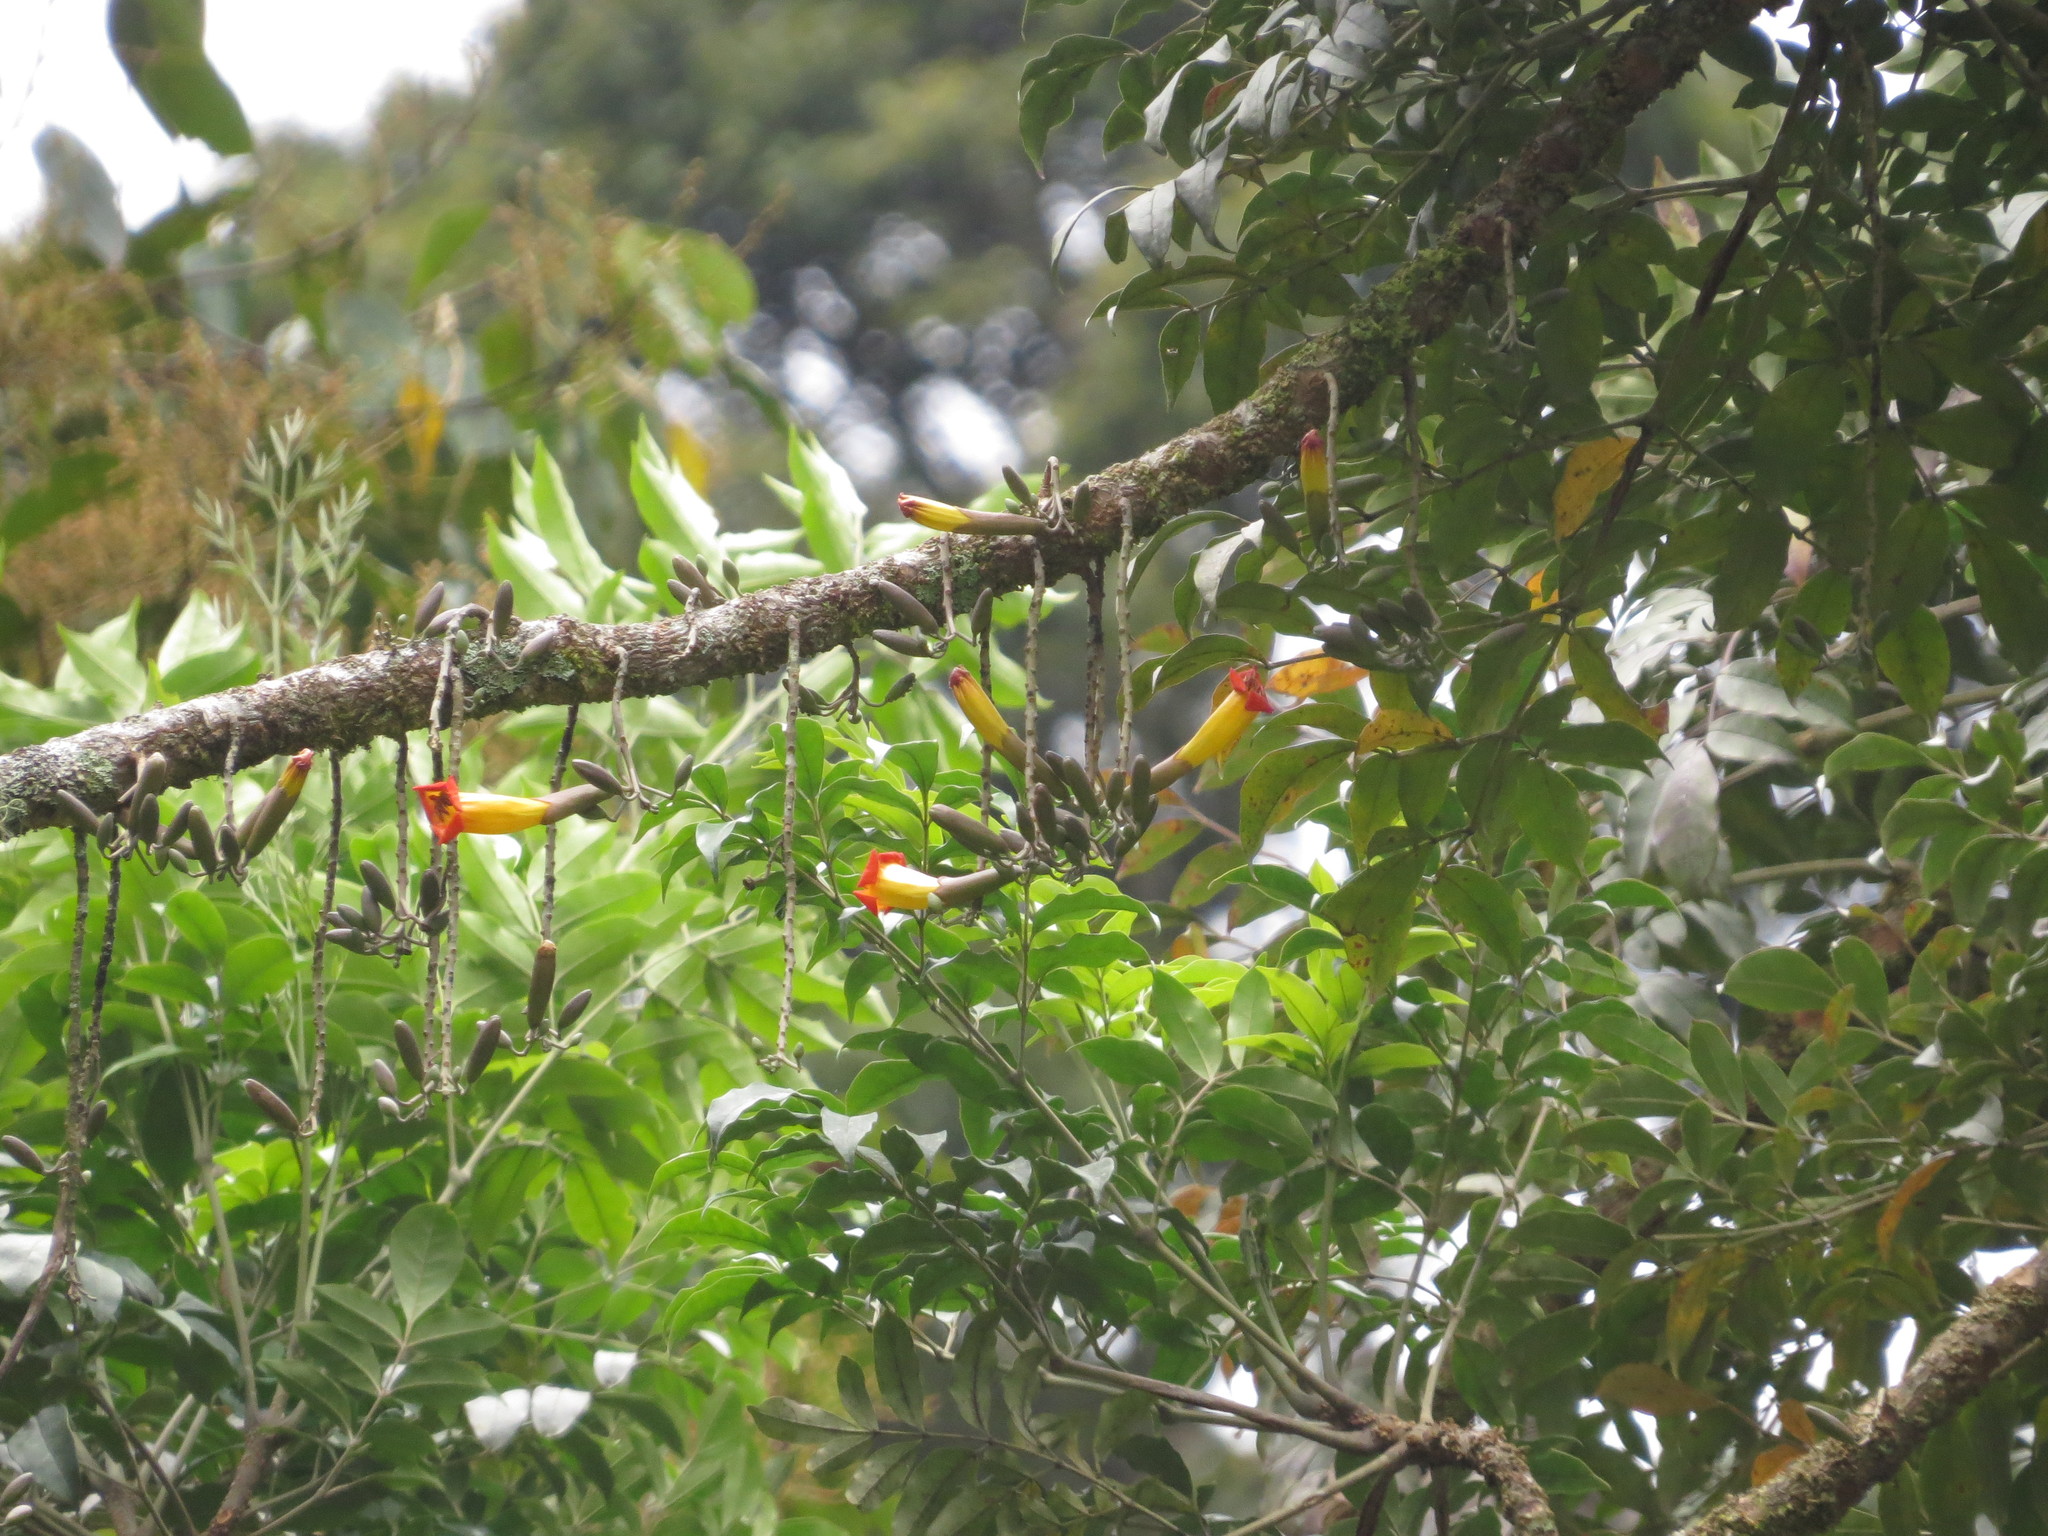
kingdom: Plantae
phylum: Tracheophyta
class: Magnoliopsida
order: Lamiales
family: Bignoniaceae
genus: Radermachera
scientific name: Radermachera ramiflora
